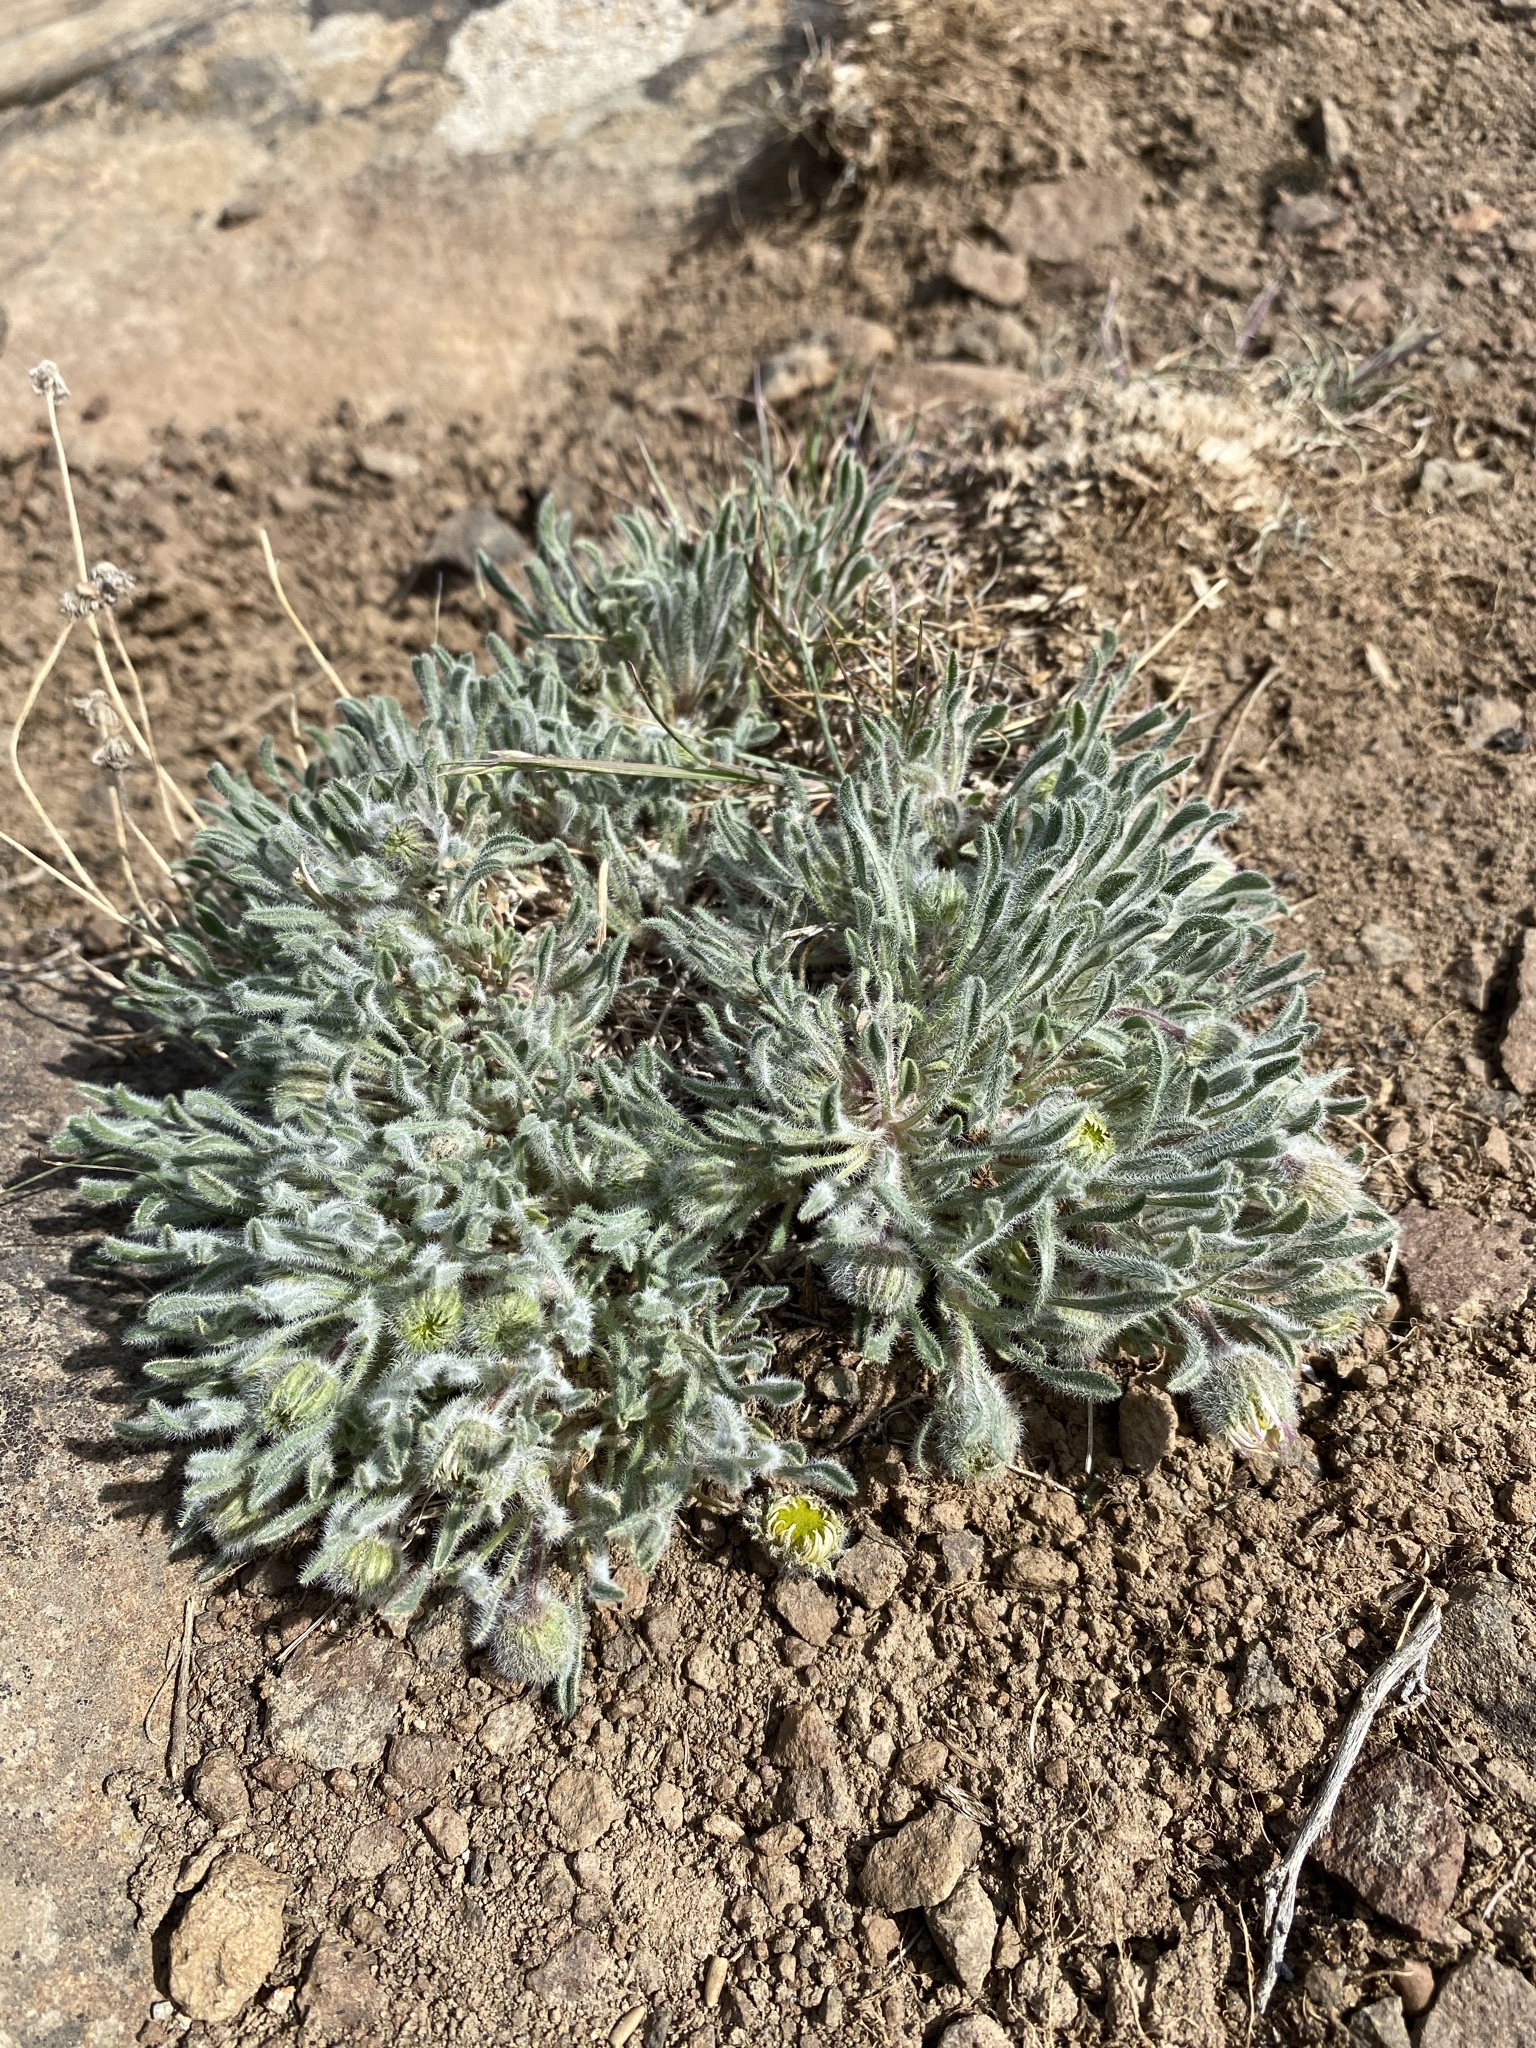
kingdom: Plantae
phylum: Tracheophyta
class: Magnoliopsida
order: Asterales
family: Asteraceae
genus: Erigeron
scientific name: Erigeron poliospermus
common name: Cushion fleabane
